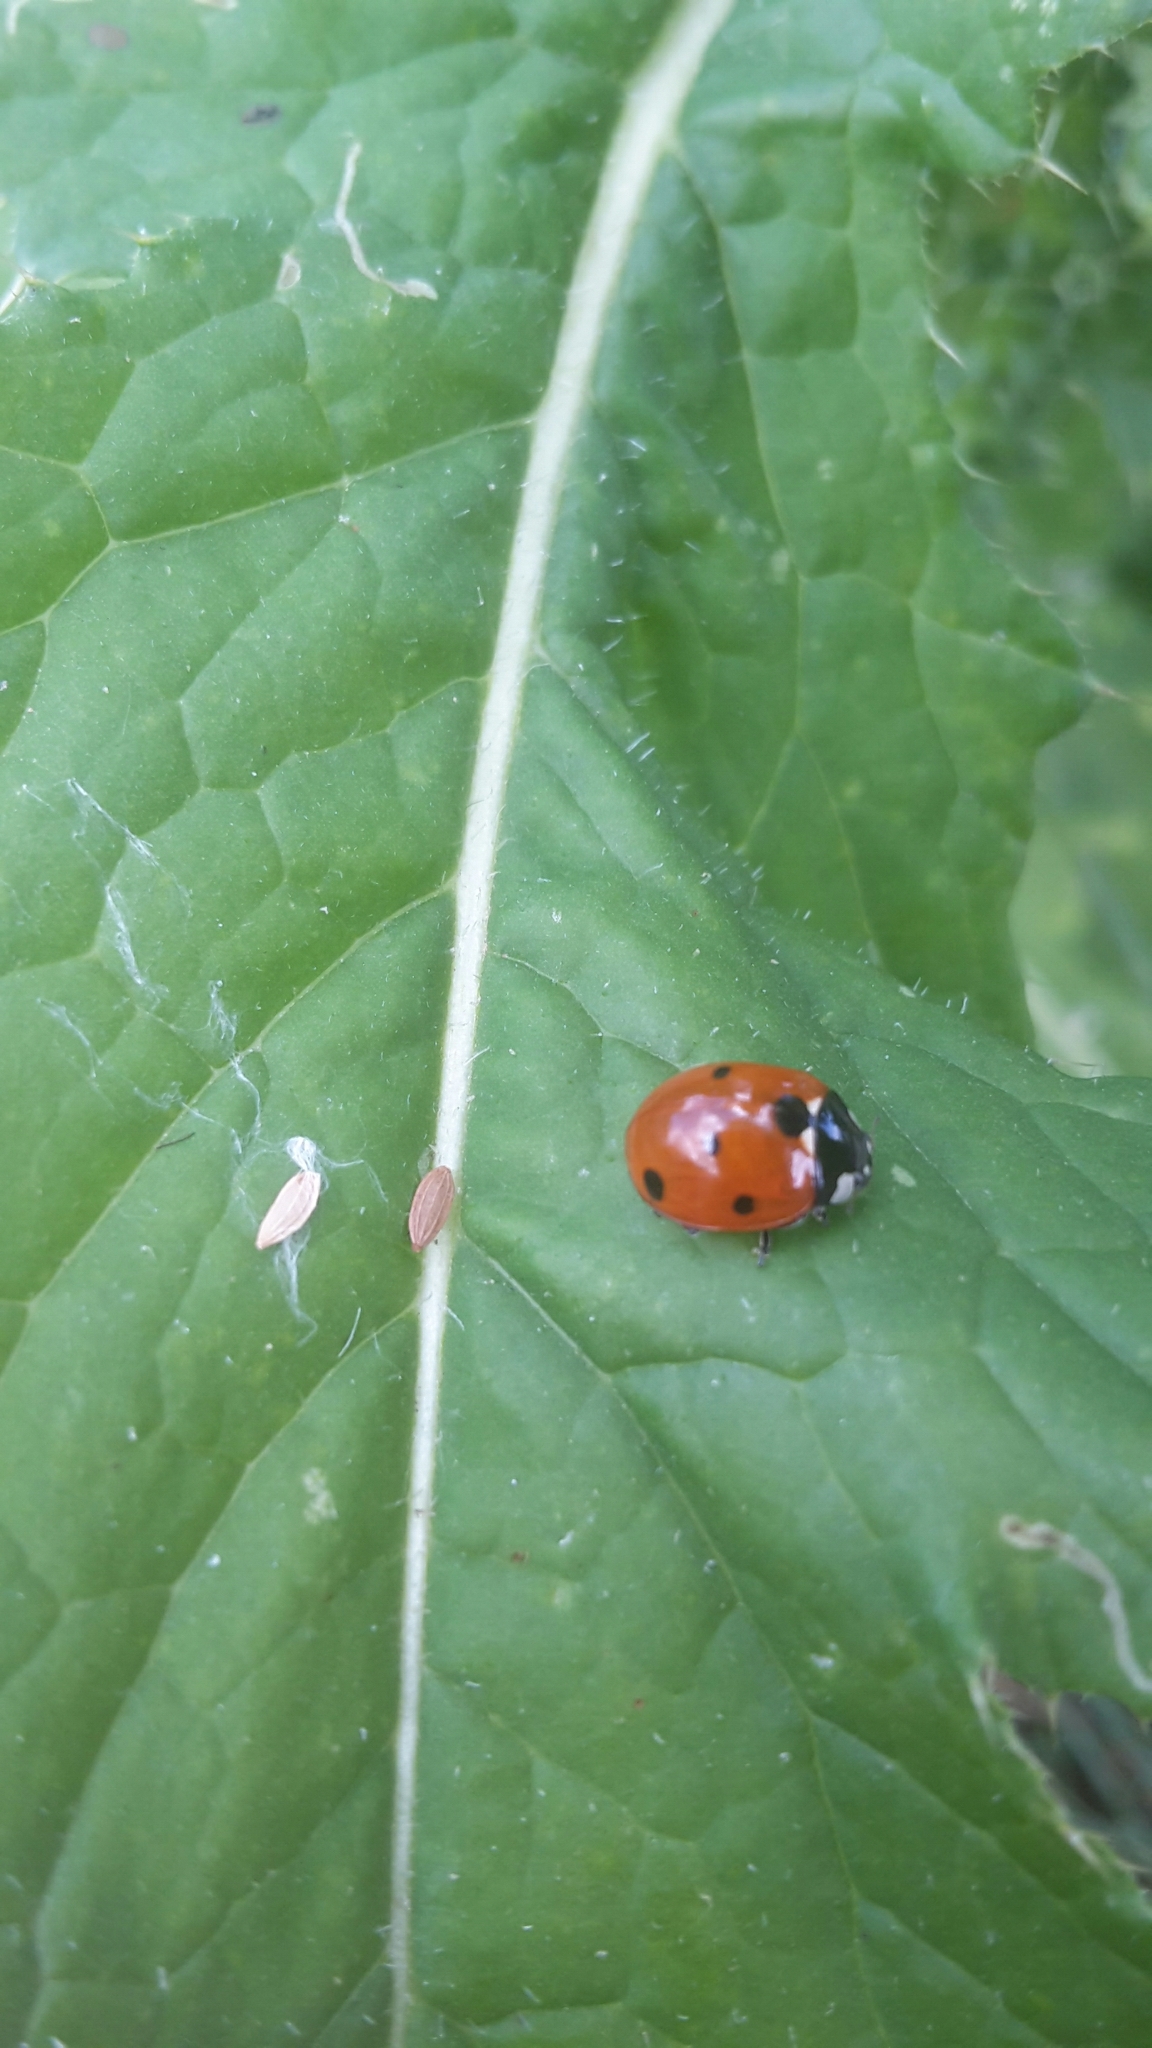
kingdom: Animalia
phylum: Arthropoda
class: Insecta
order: Coleoptera
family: Coccinellidae
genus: Coccinella
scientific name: Coccinella septempunctata
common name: Sevenspotted lady beetle
